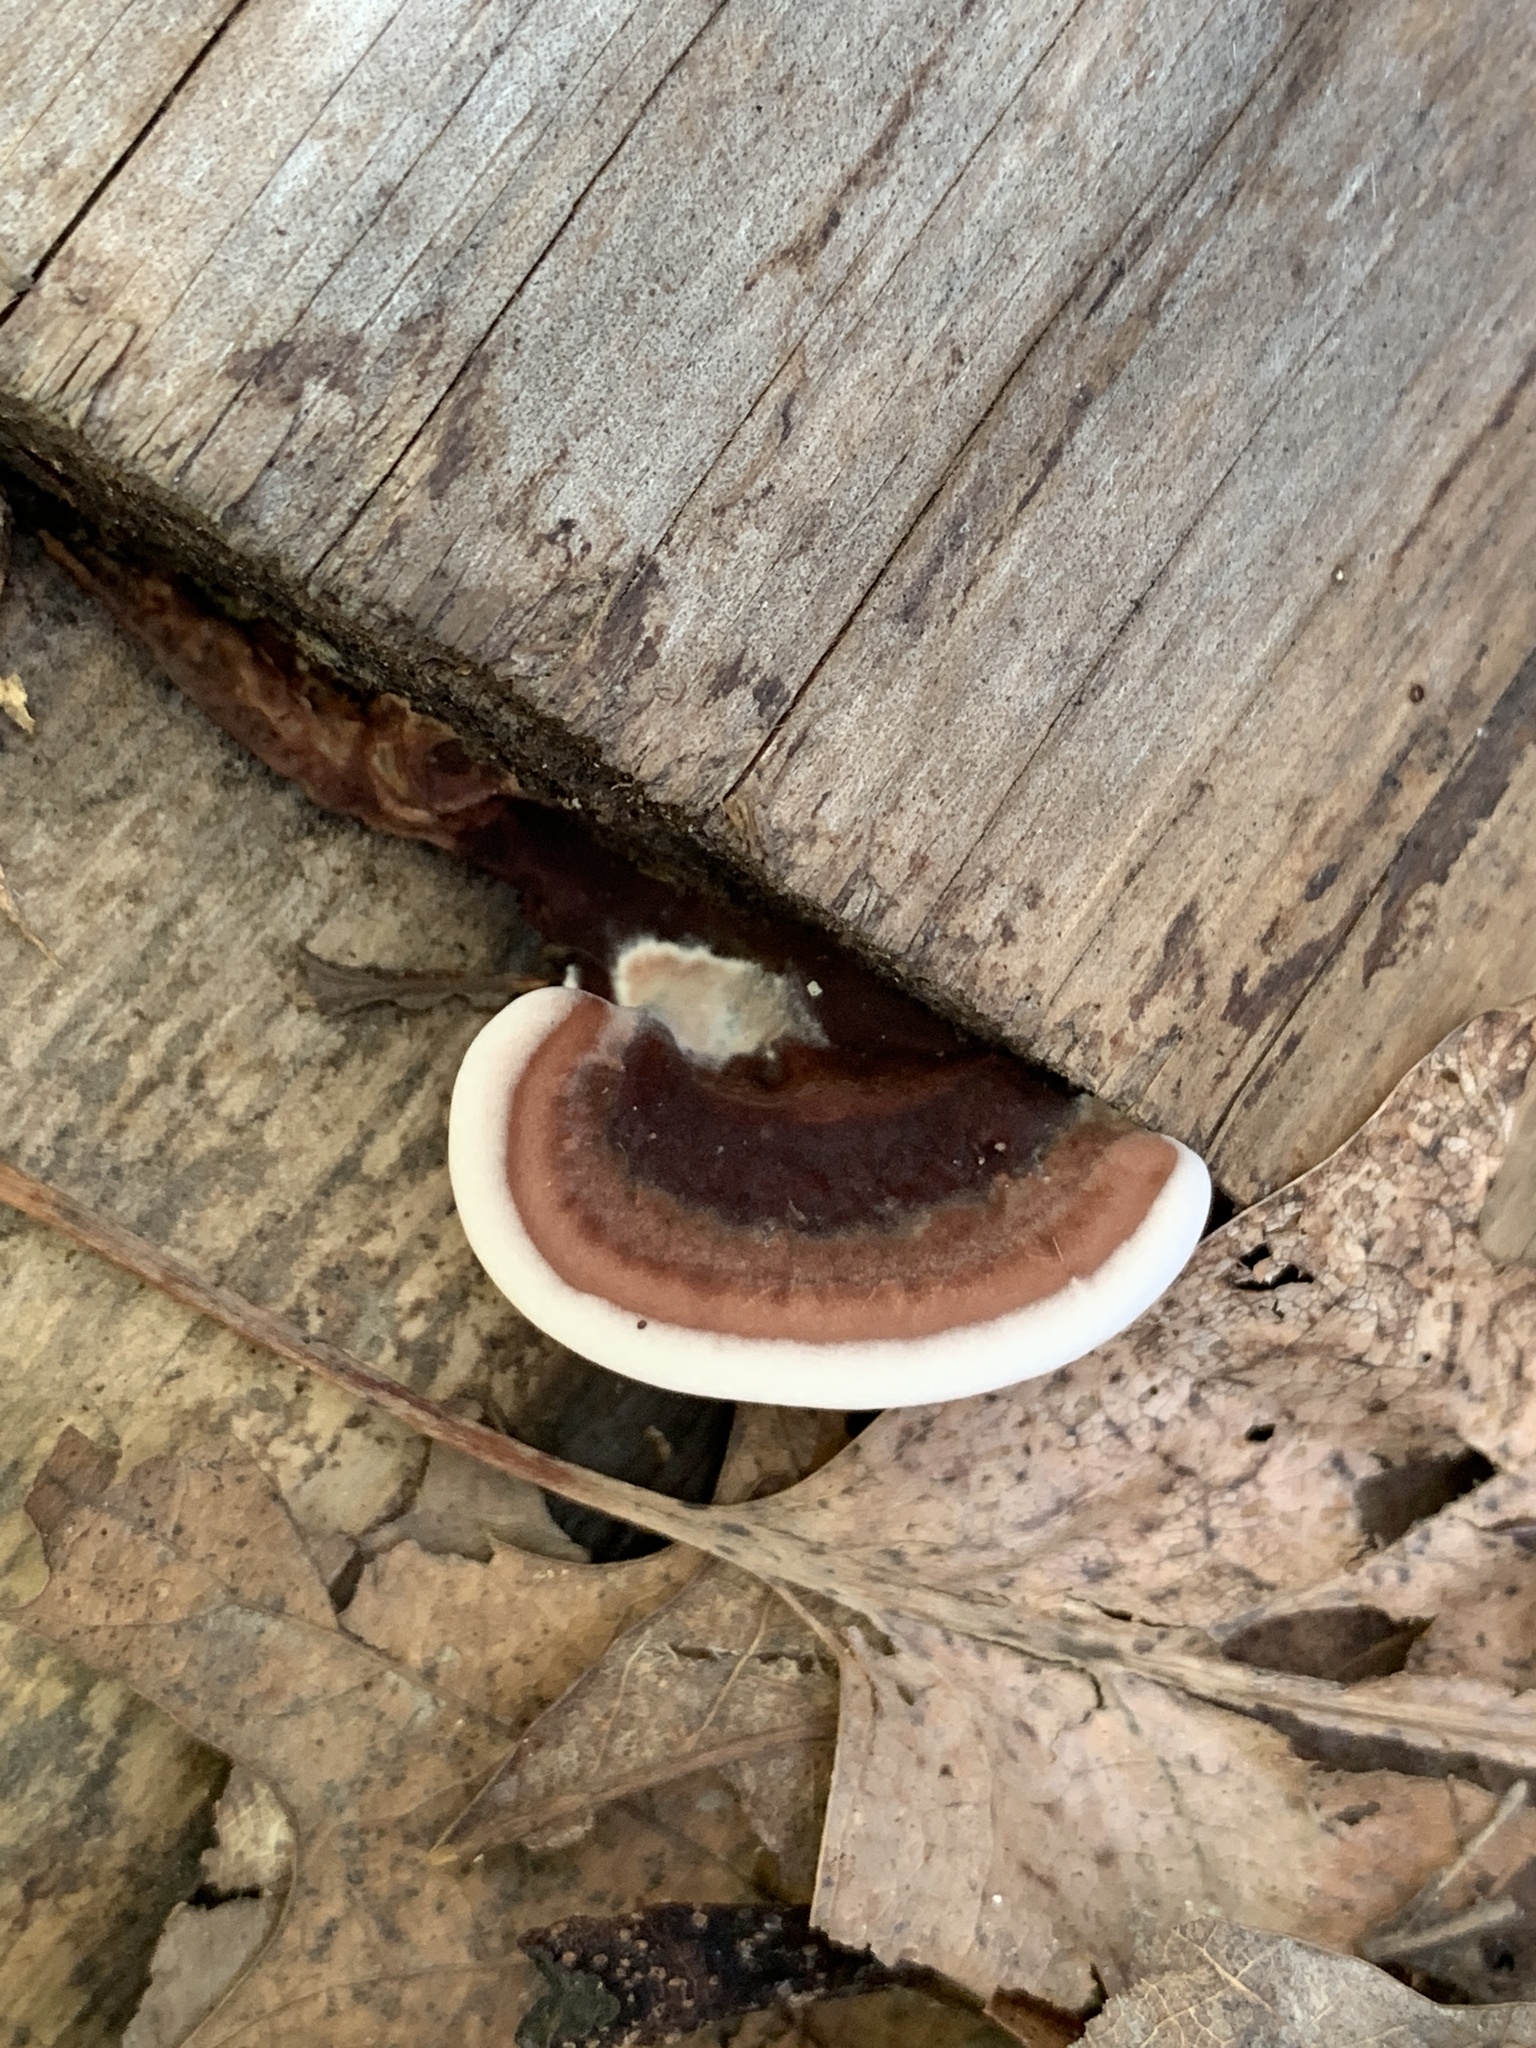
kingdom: Fungi
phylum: Basidiomycota
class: Agaricomycetes
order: Polyporales
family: Steccherinaceae
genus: Nigroporus
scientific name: Nigroporus vinosus
